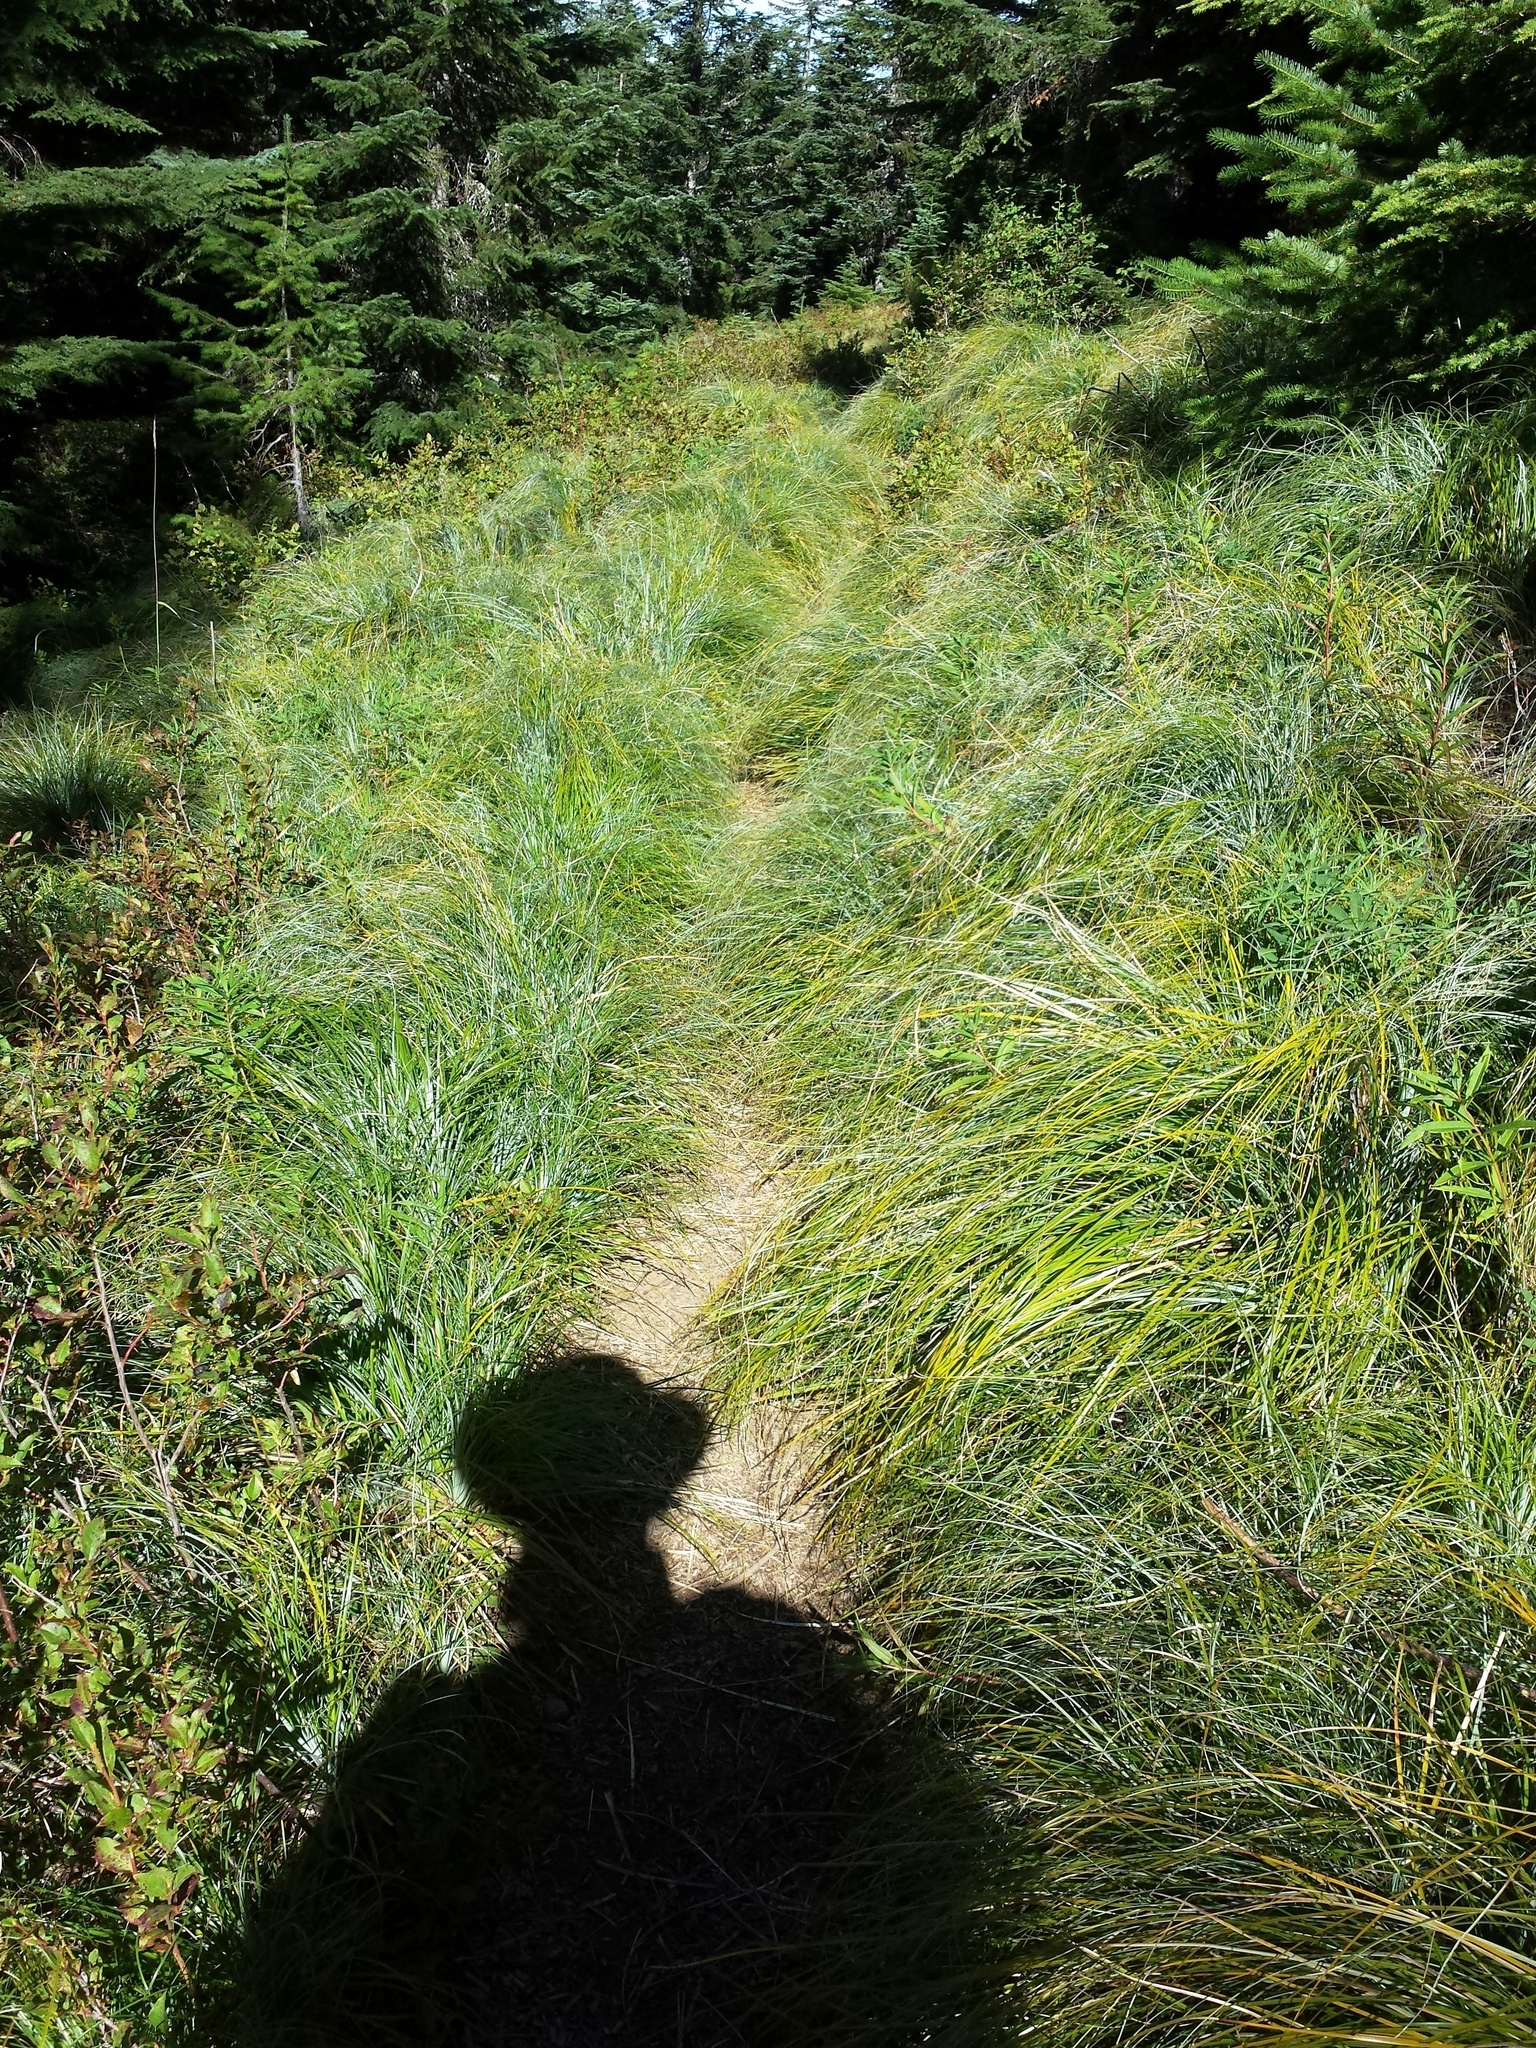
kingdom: Plantae
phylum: Tracheophyta
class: Liliopsida
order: Liliales
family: Melanthiaceae
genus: Xerophyllum
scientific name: Xerophyllum tenax
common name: Bear-grass
